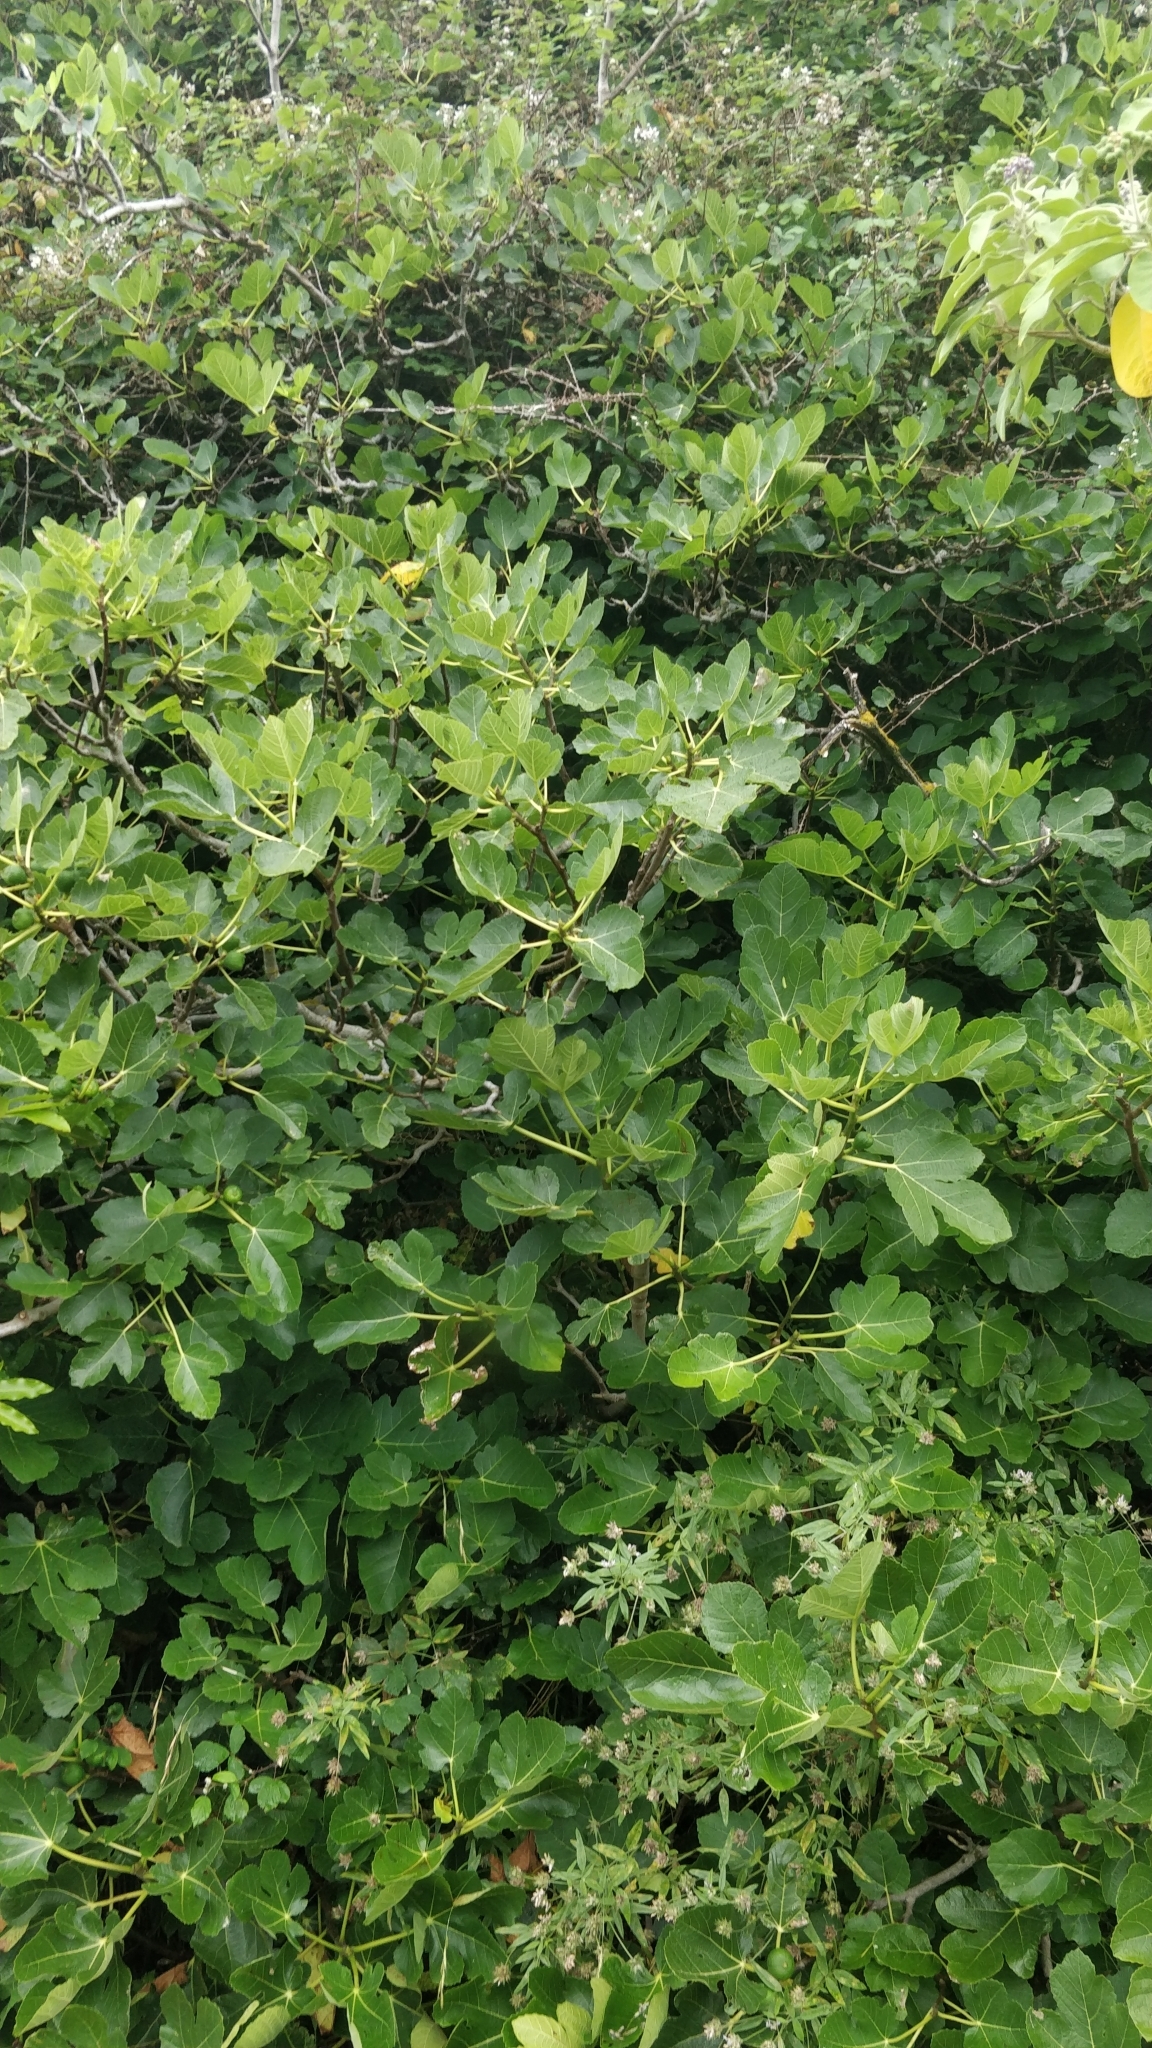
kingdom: Plantae
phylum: Tracheophyta
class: Magnoliopsida
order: Rosales
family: Moraceae
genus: Ficus
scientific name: Ficus carica
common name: Fig
